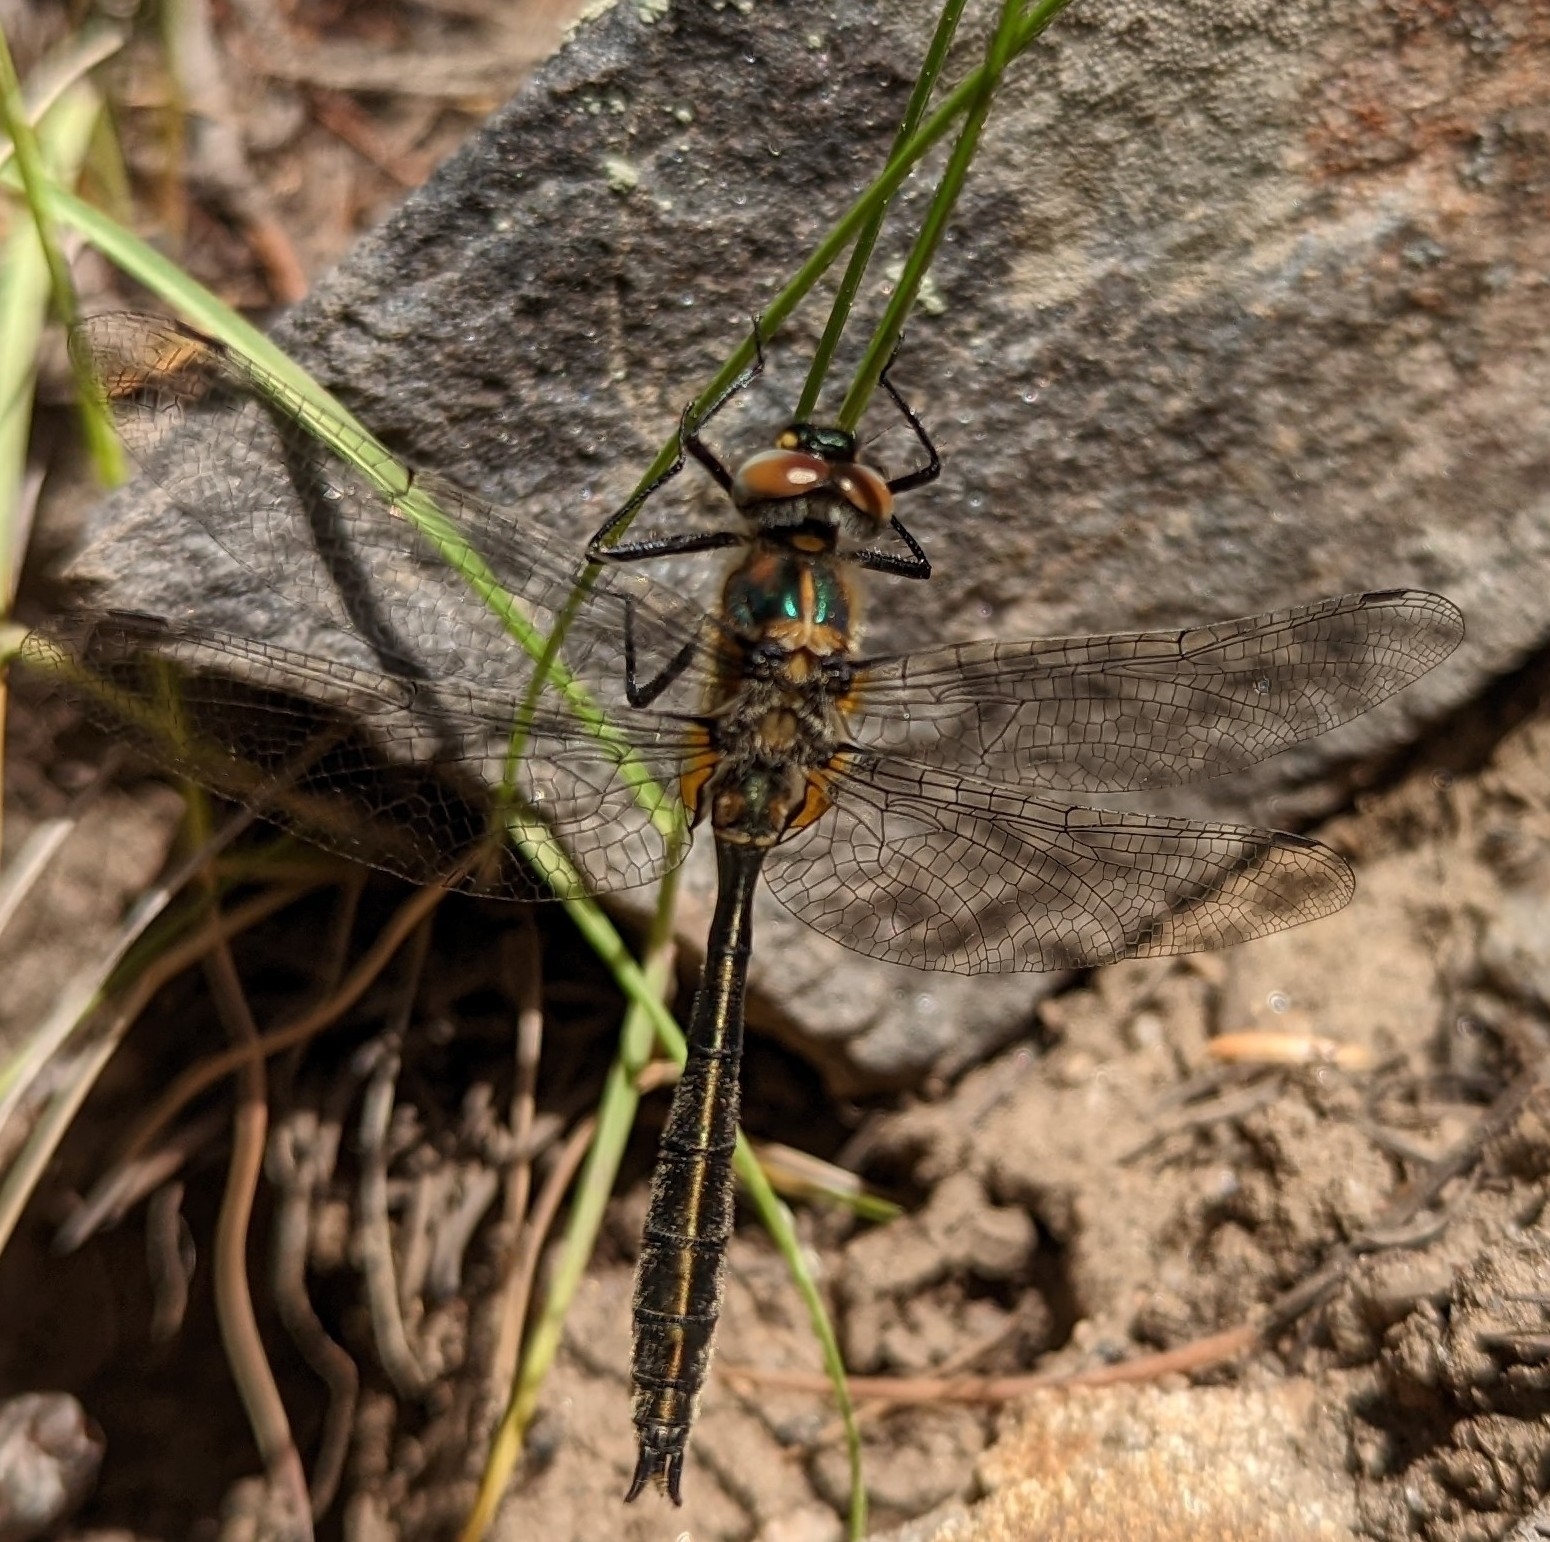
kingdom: Animalia
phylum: Arthropoda
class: Insecta
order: Odonata
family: Corduliidae
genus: Cordulia
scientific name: Cordulia shurtleffii
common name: American emerald
